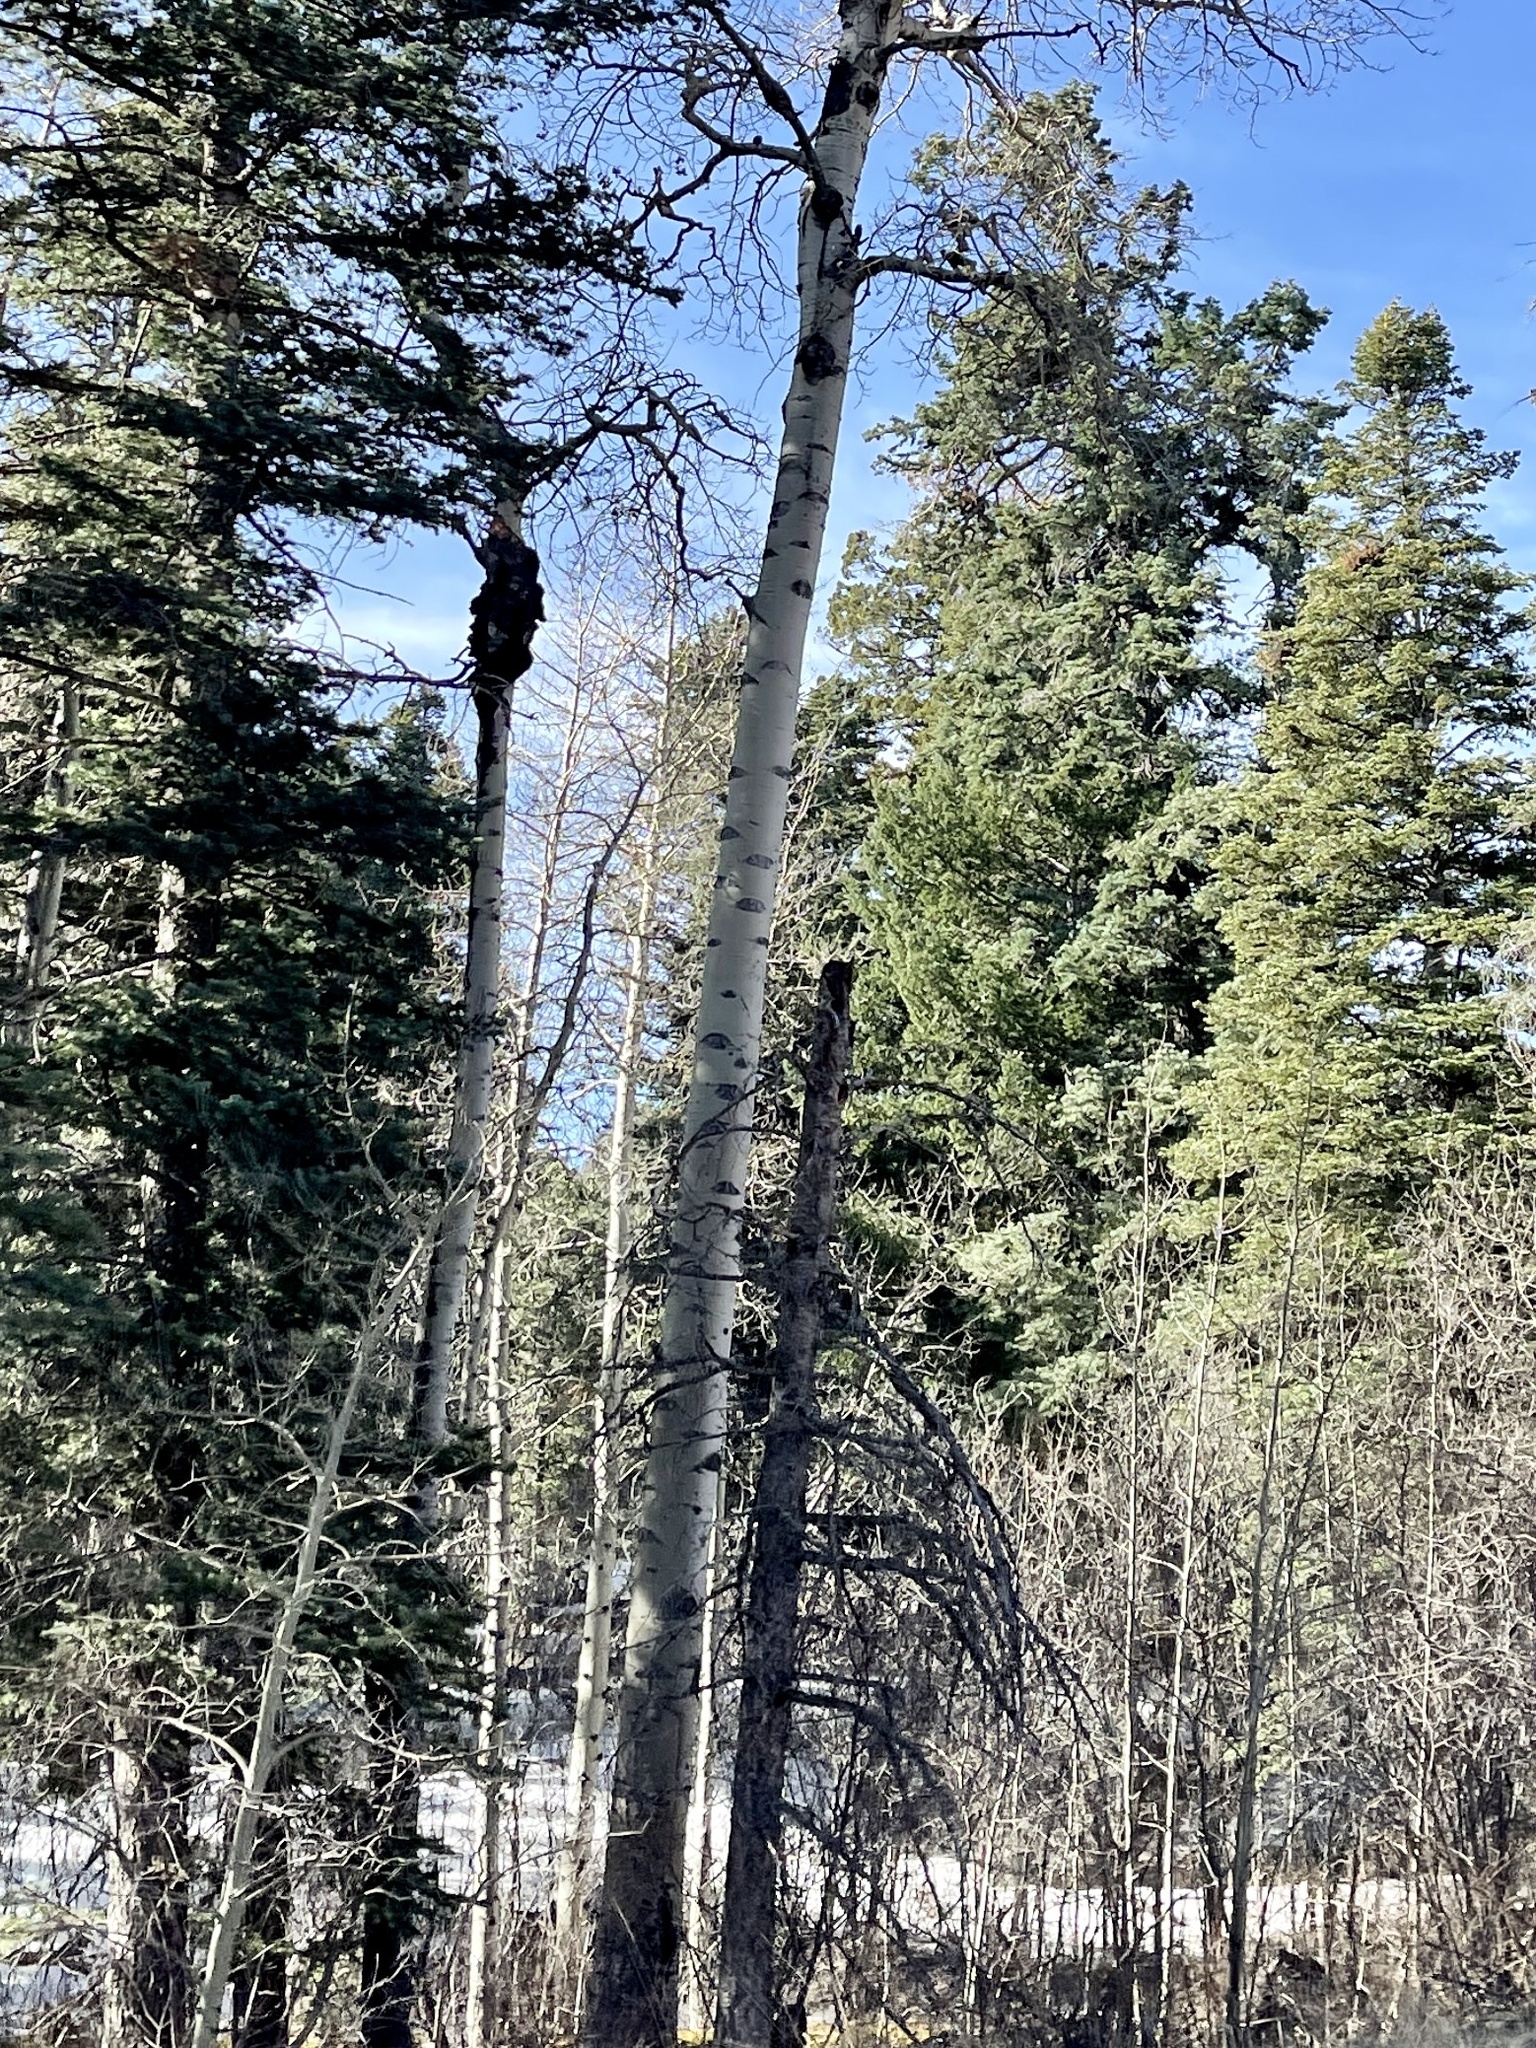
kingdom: Plantae
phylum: Tracheophyta
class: Magnoliopsida
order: Malpighiales
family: Salicaceae
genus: Populus
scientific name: Populus tremuloides
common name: Quaking aspen
